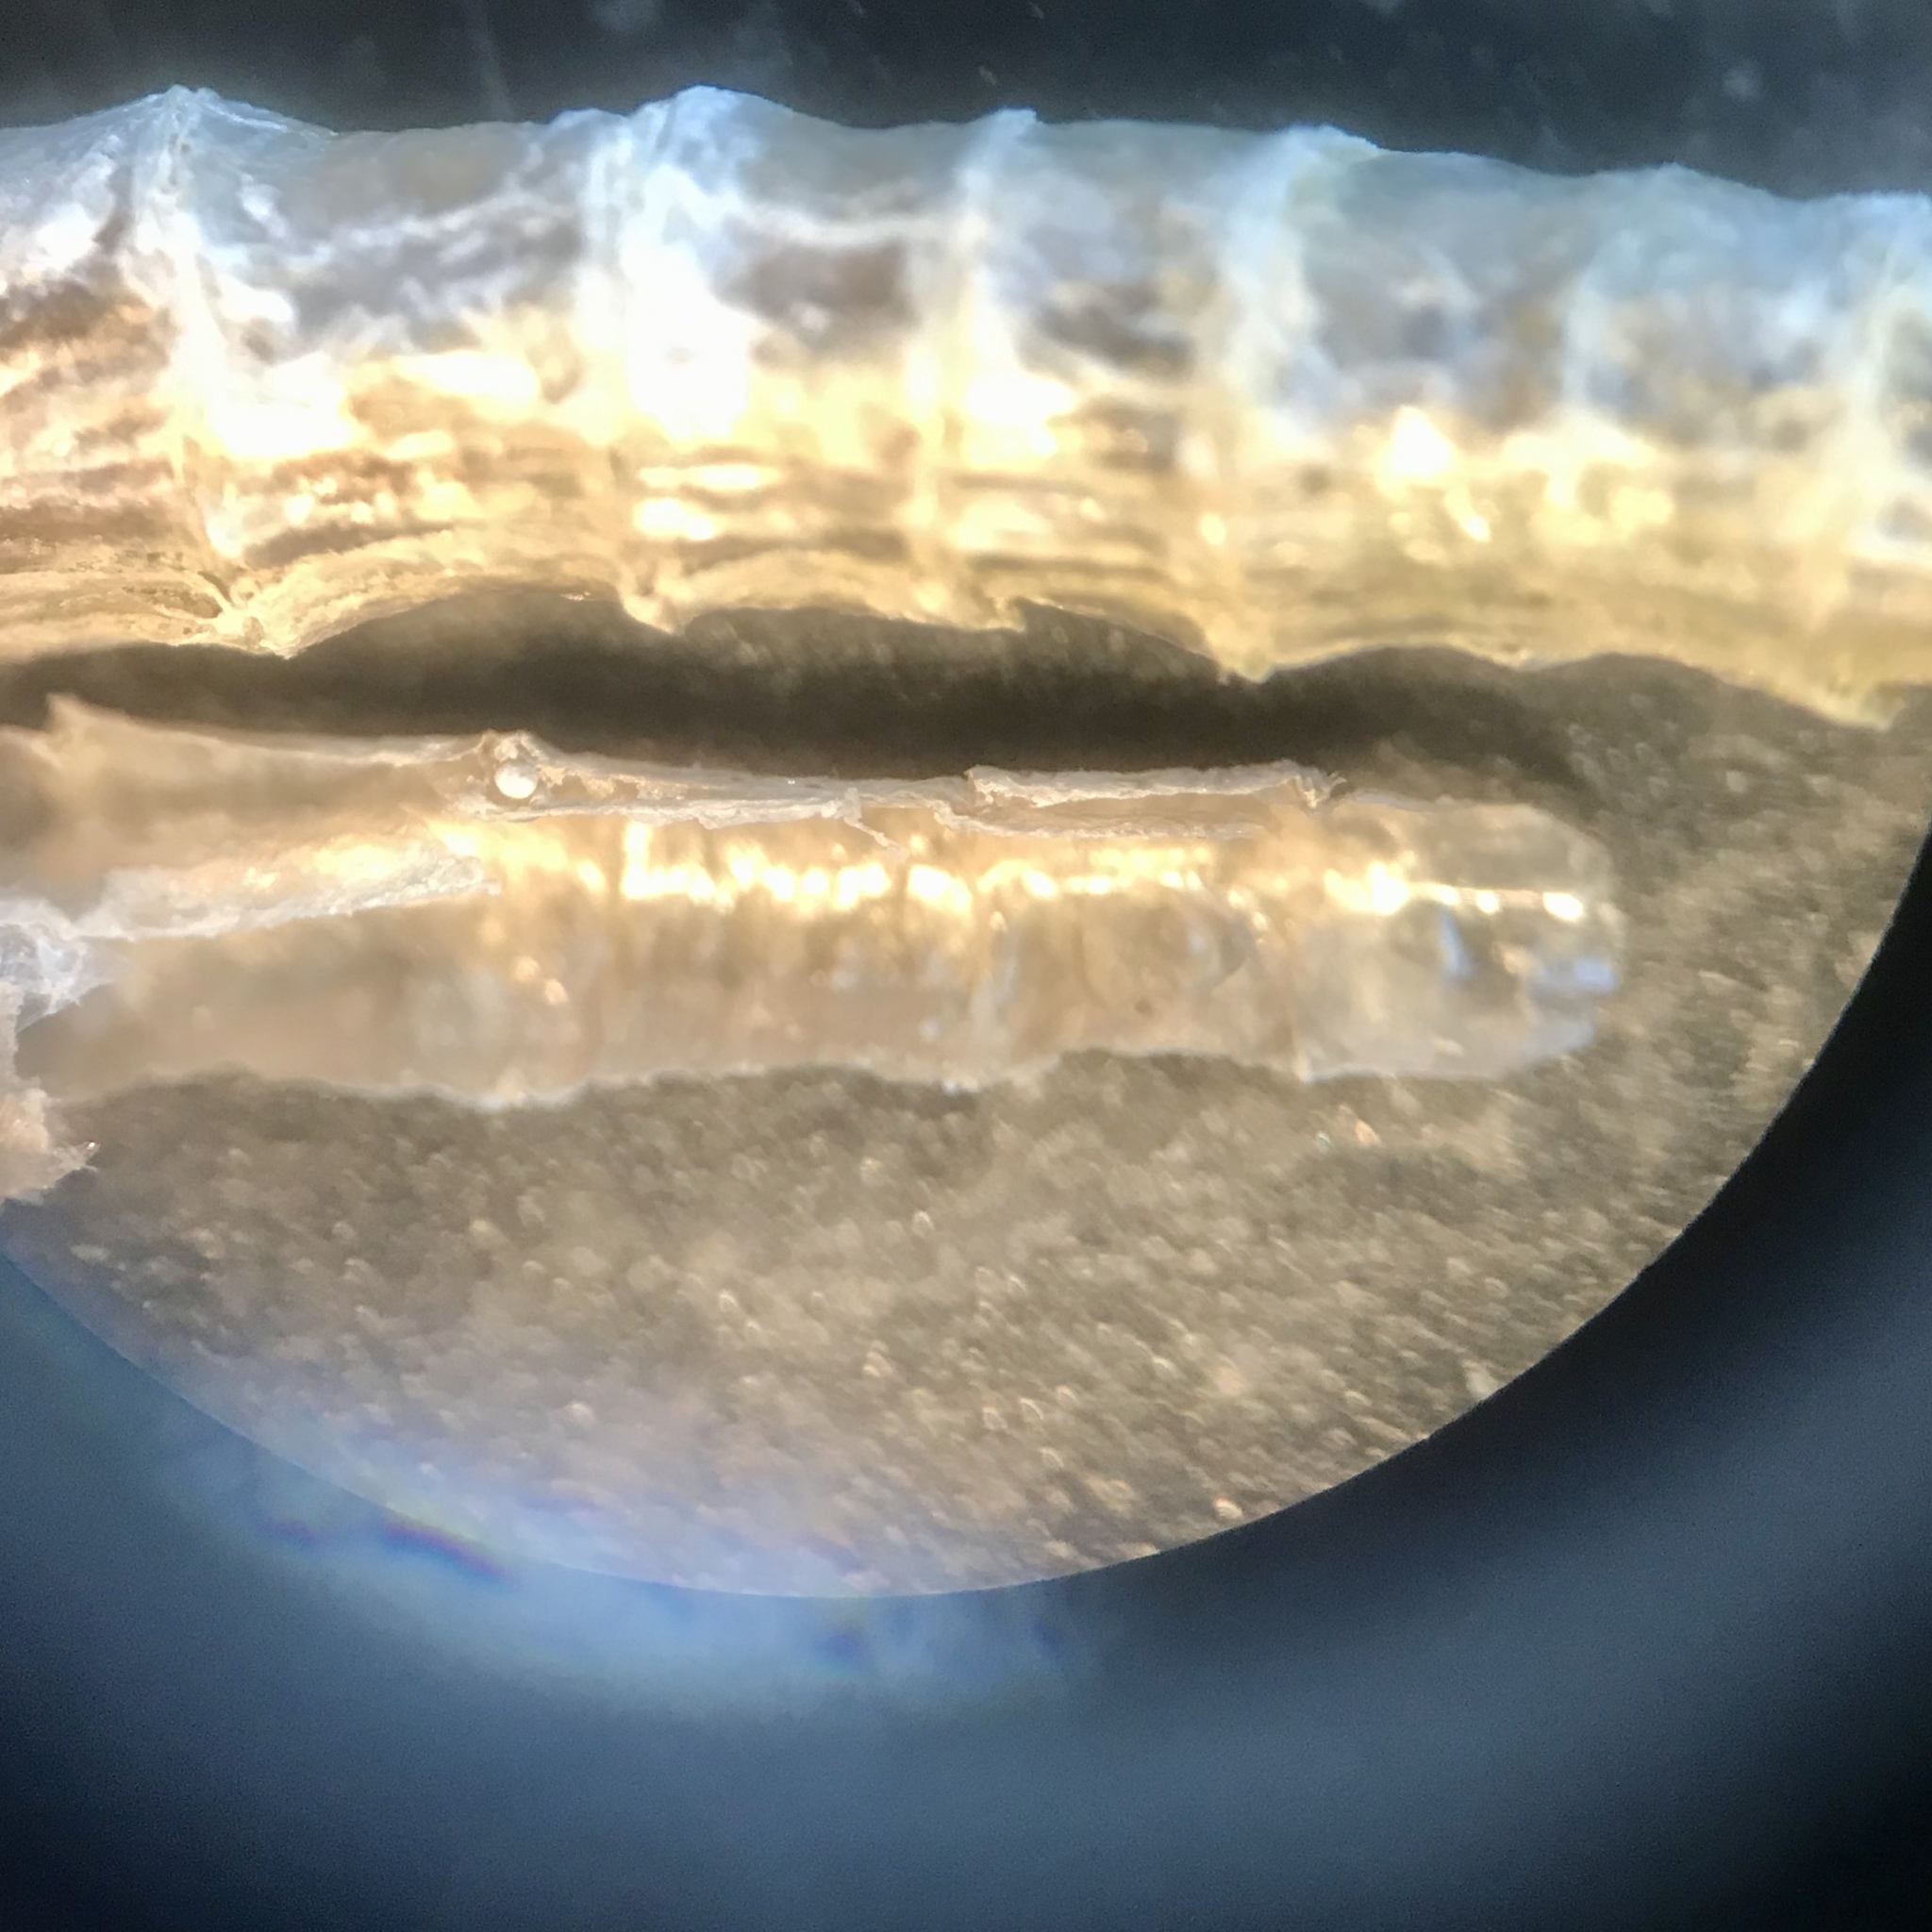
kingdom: Animalia
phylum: Annelida
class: Polychaeta
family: Chaetopteridae
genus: Spiochaetopterus
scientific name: Spiochaetopterus costarum
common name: Glassy tubeworm
